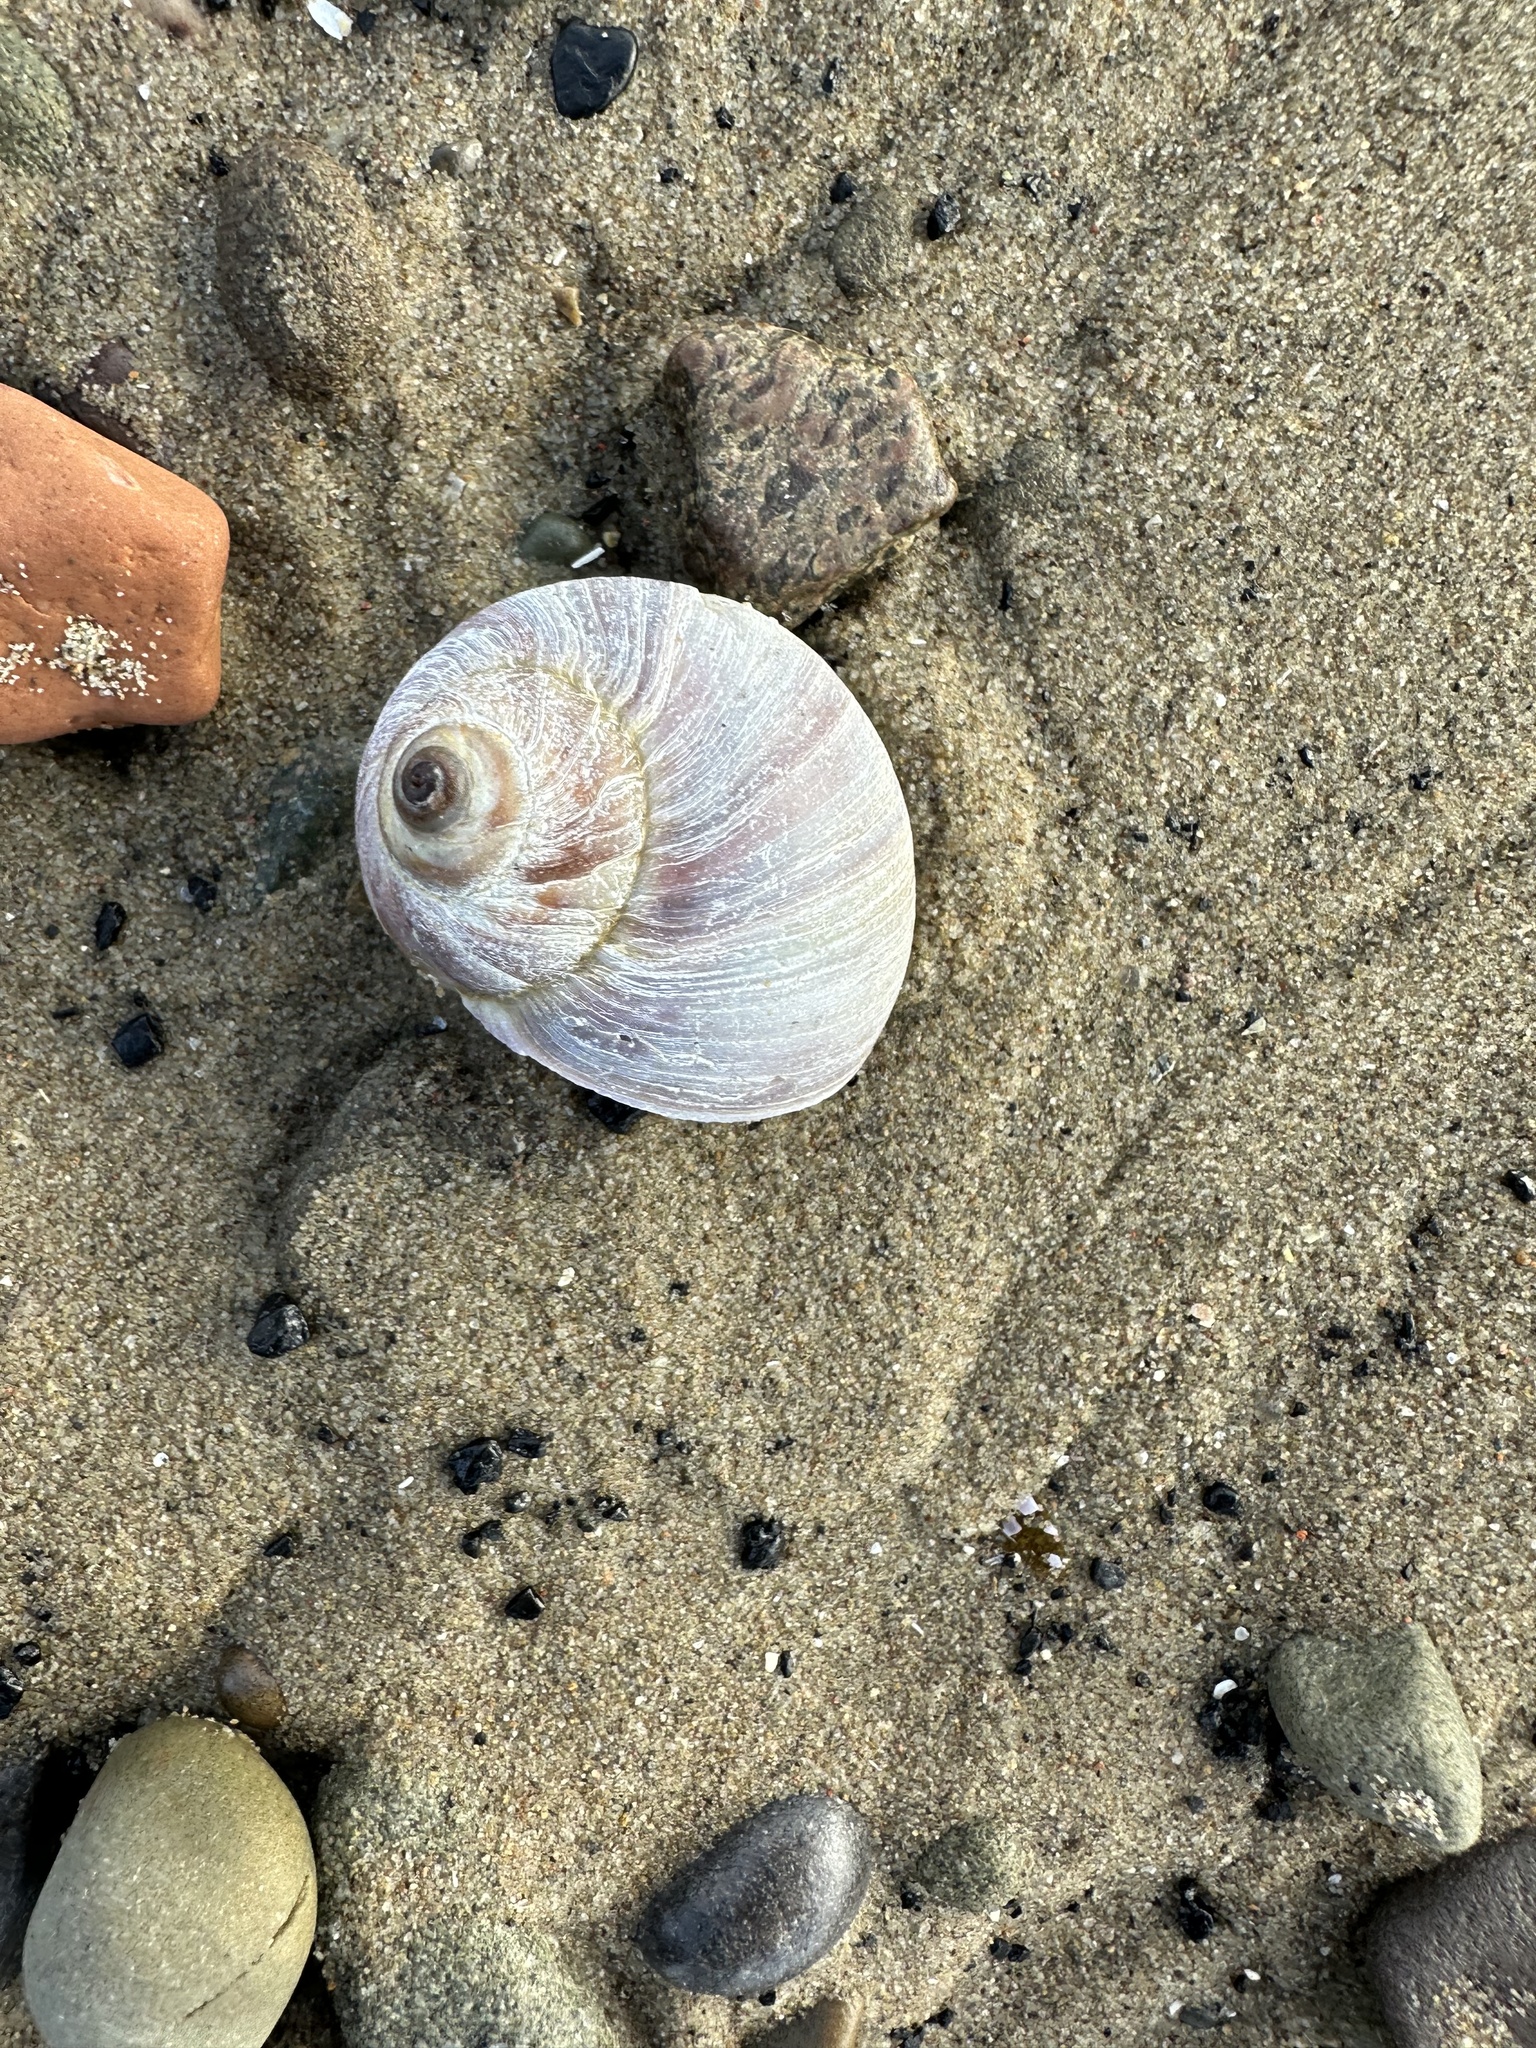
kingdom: Animalia
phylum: Mollusca
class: Gastropoda
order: Littorinimorpha
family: Naticidae
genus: Euspira
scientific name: Euspira heros
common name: Common northern moonsnail
